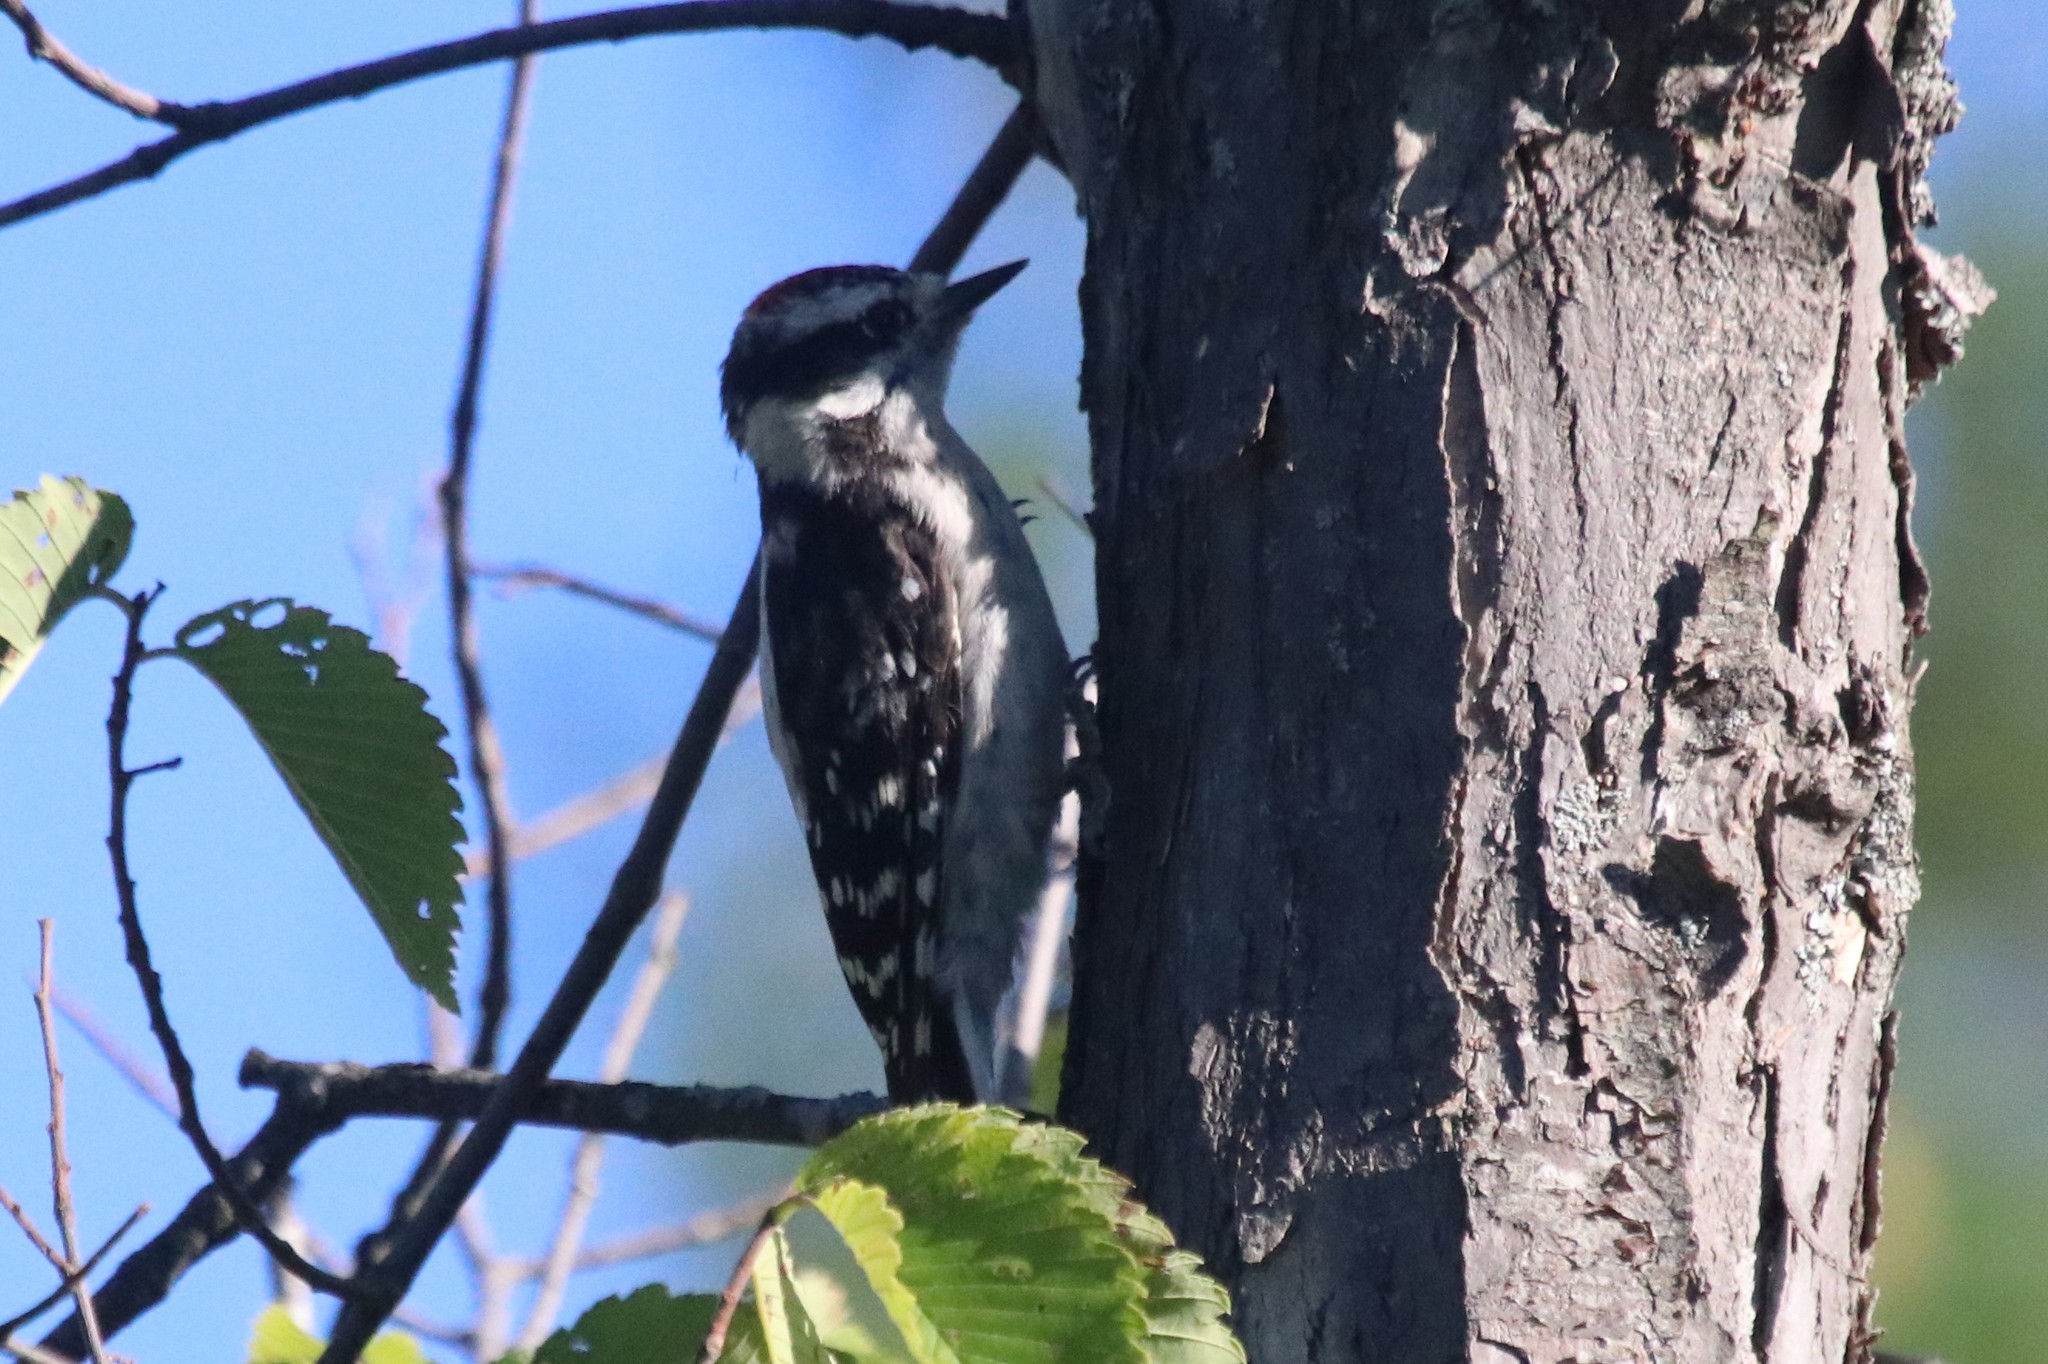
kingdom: Animalia
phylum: Chordata
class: Aves
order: Piciformes
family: Picidae
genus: Dryobates
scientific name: Dryobates pubescens
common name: Downy woodpecker
